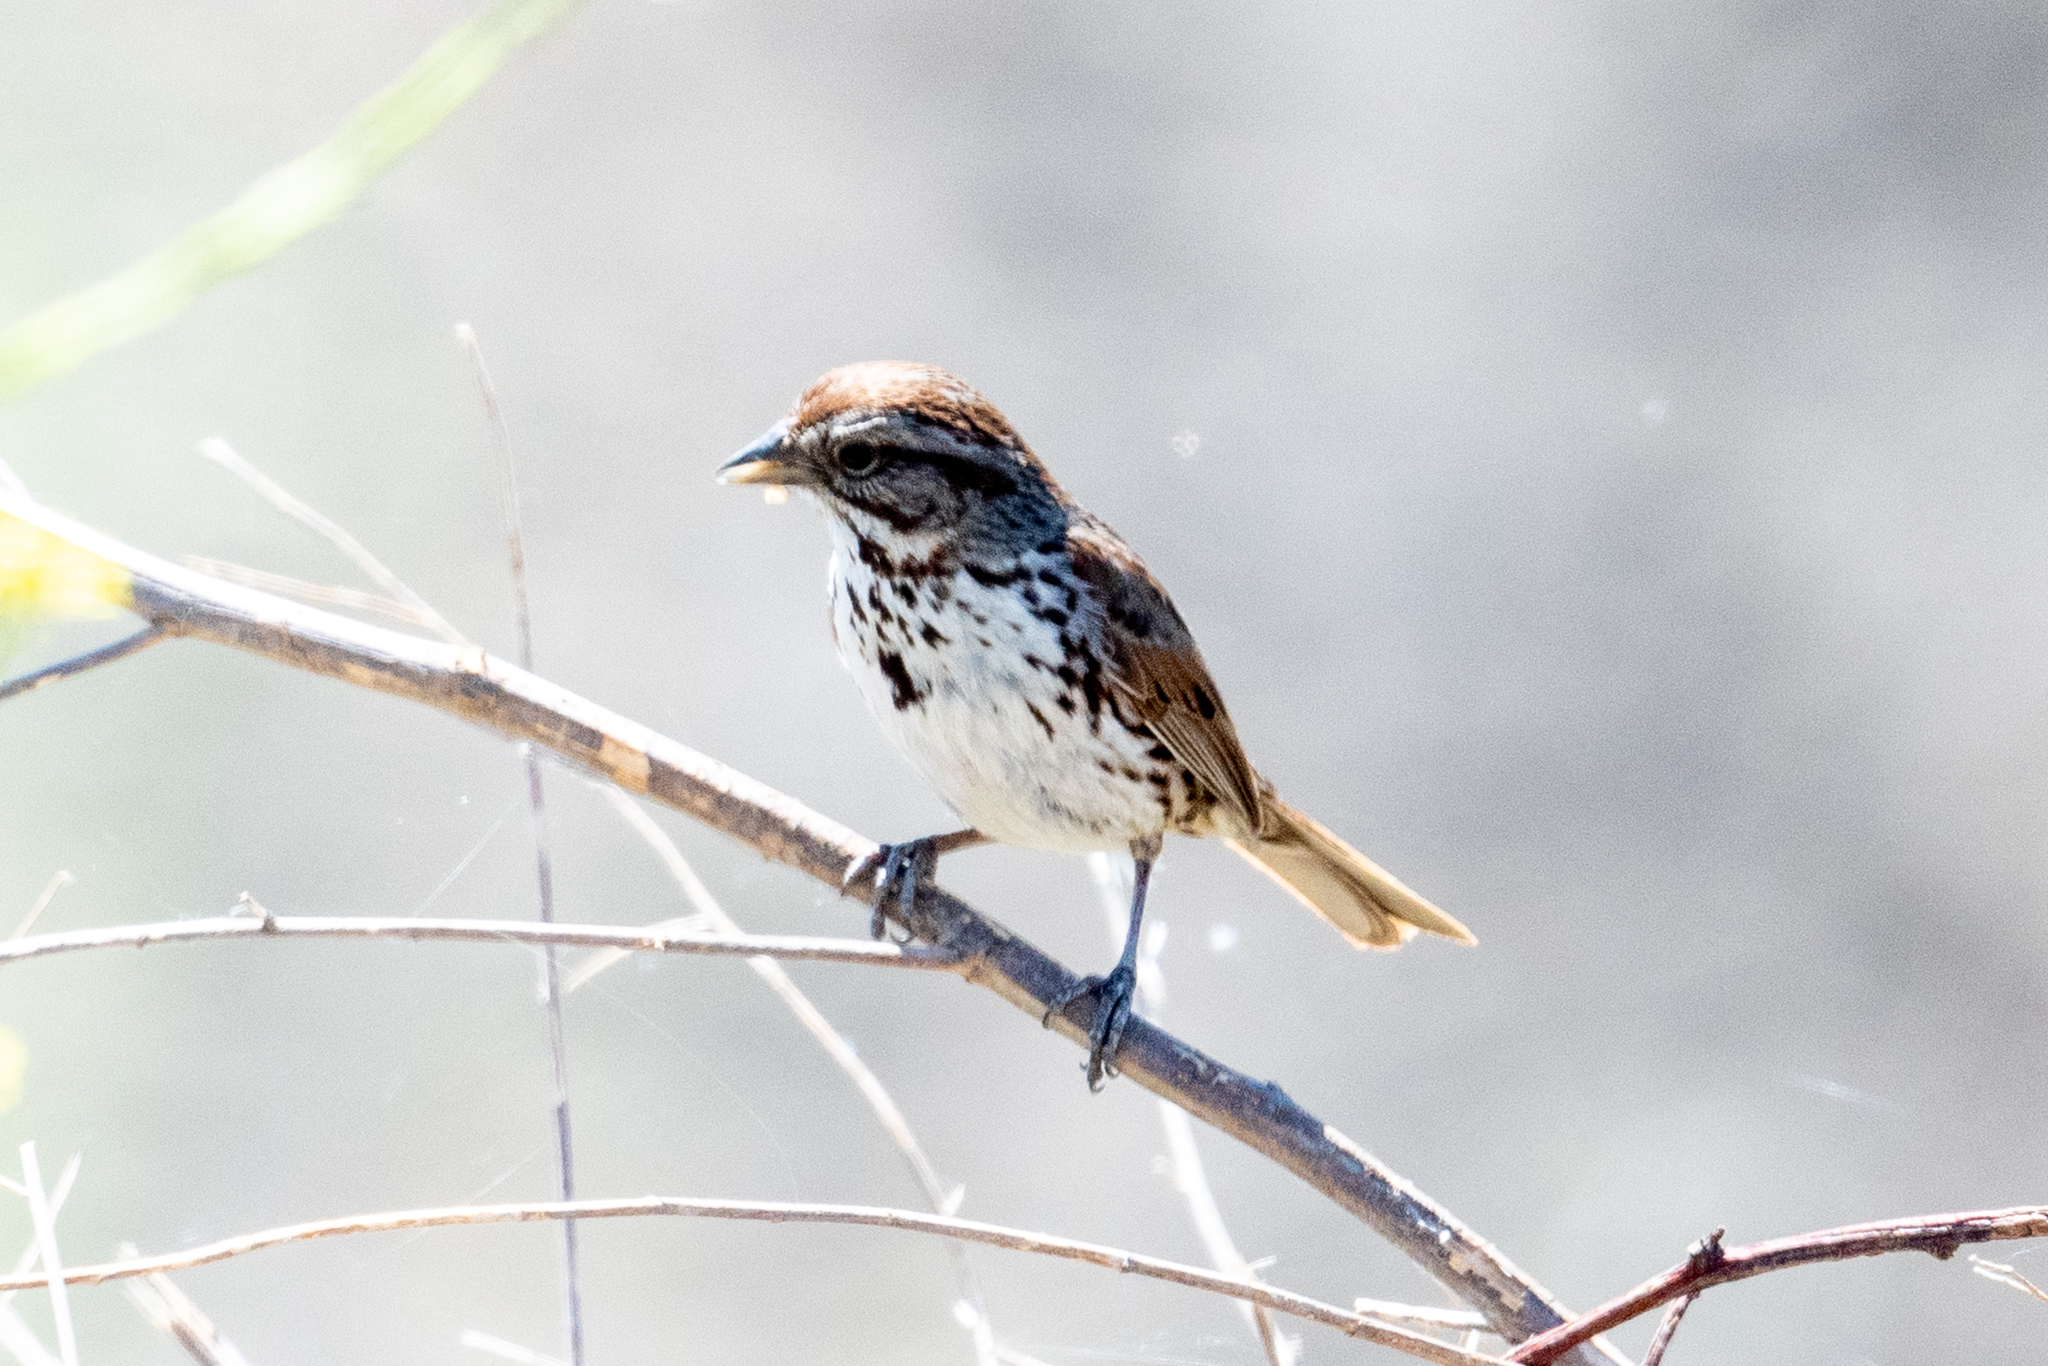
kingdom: Animalia
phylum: Chordata
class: Aves
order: Passeriformes
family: Passerellidae
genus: Melospiza
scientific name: Melospiza melodia
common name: Song sparrow
